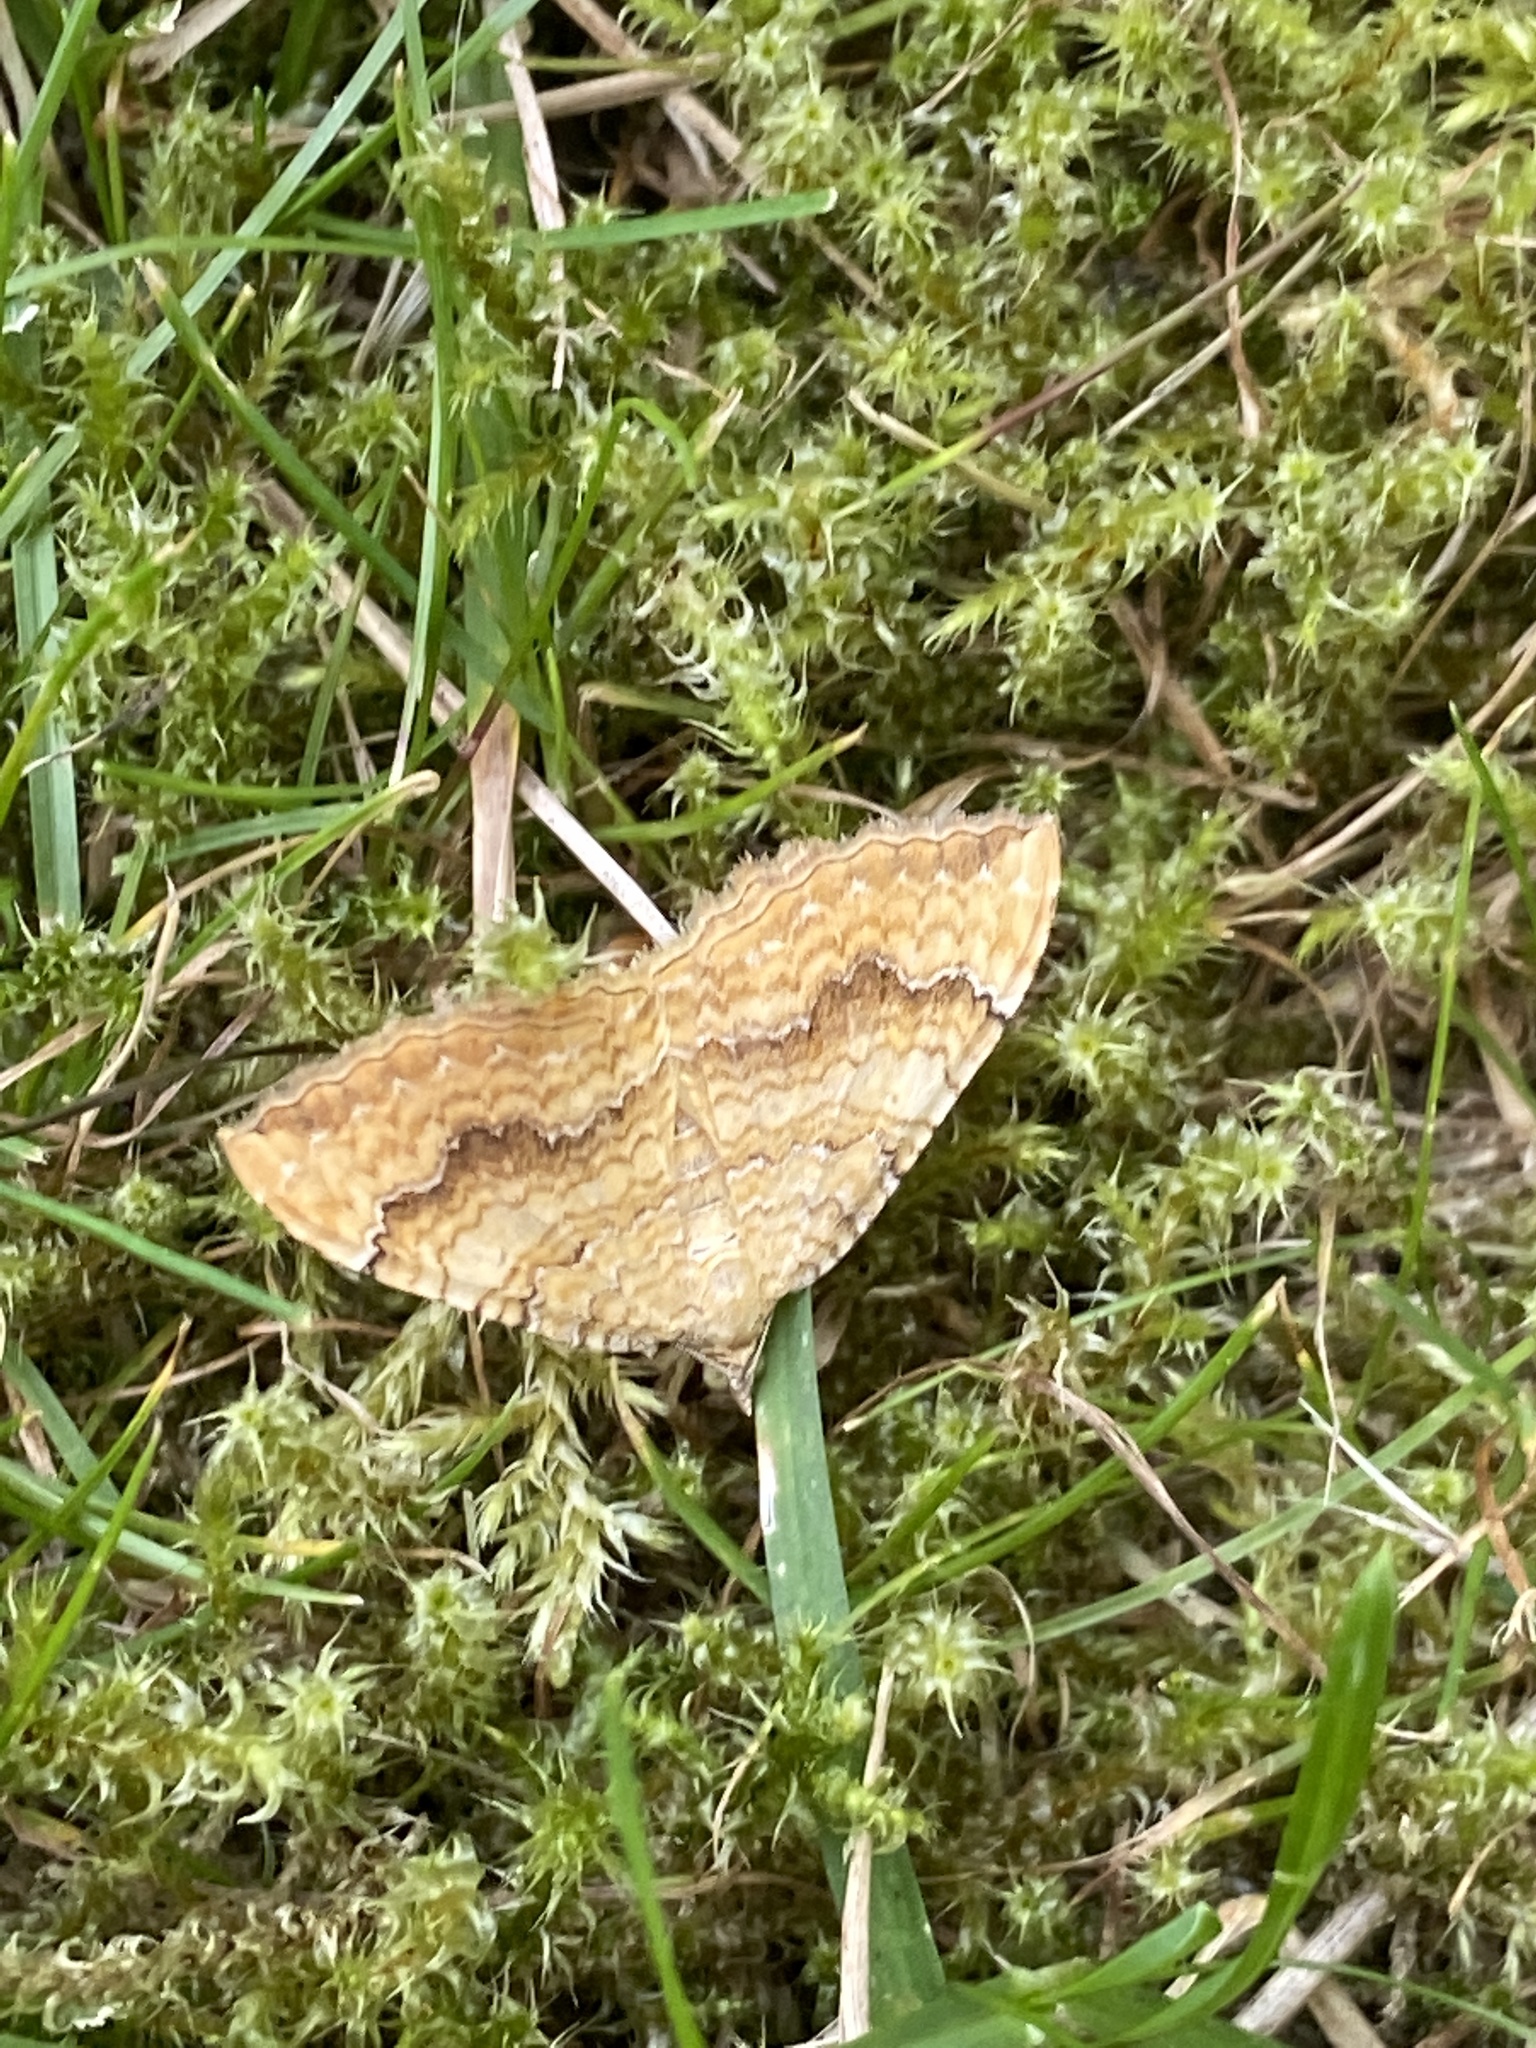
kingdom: Animalia
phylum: Arthropoda
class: Insecta
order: Lepidoptera
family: Geometridae
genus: Camptogramma
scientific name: Camptogramma bilineata
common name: Yellow shell
